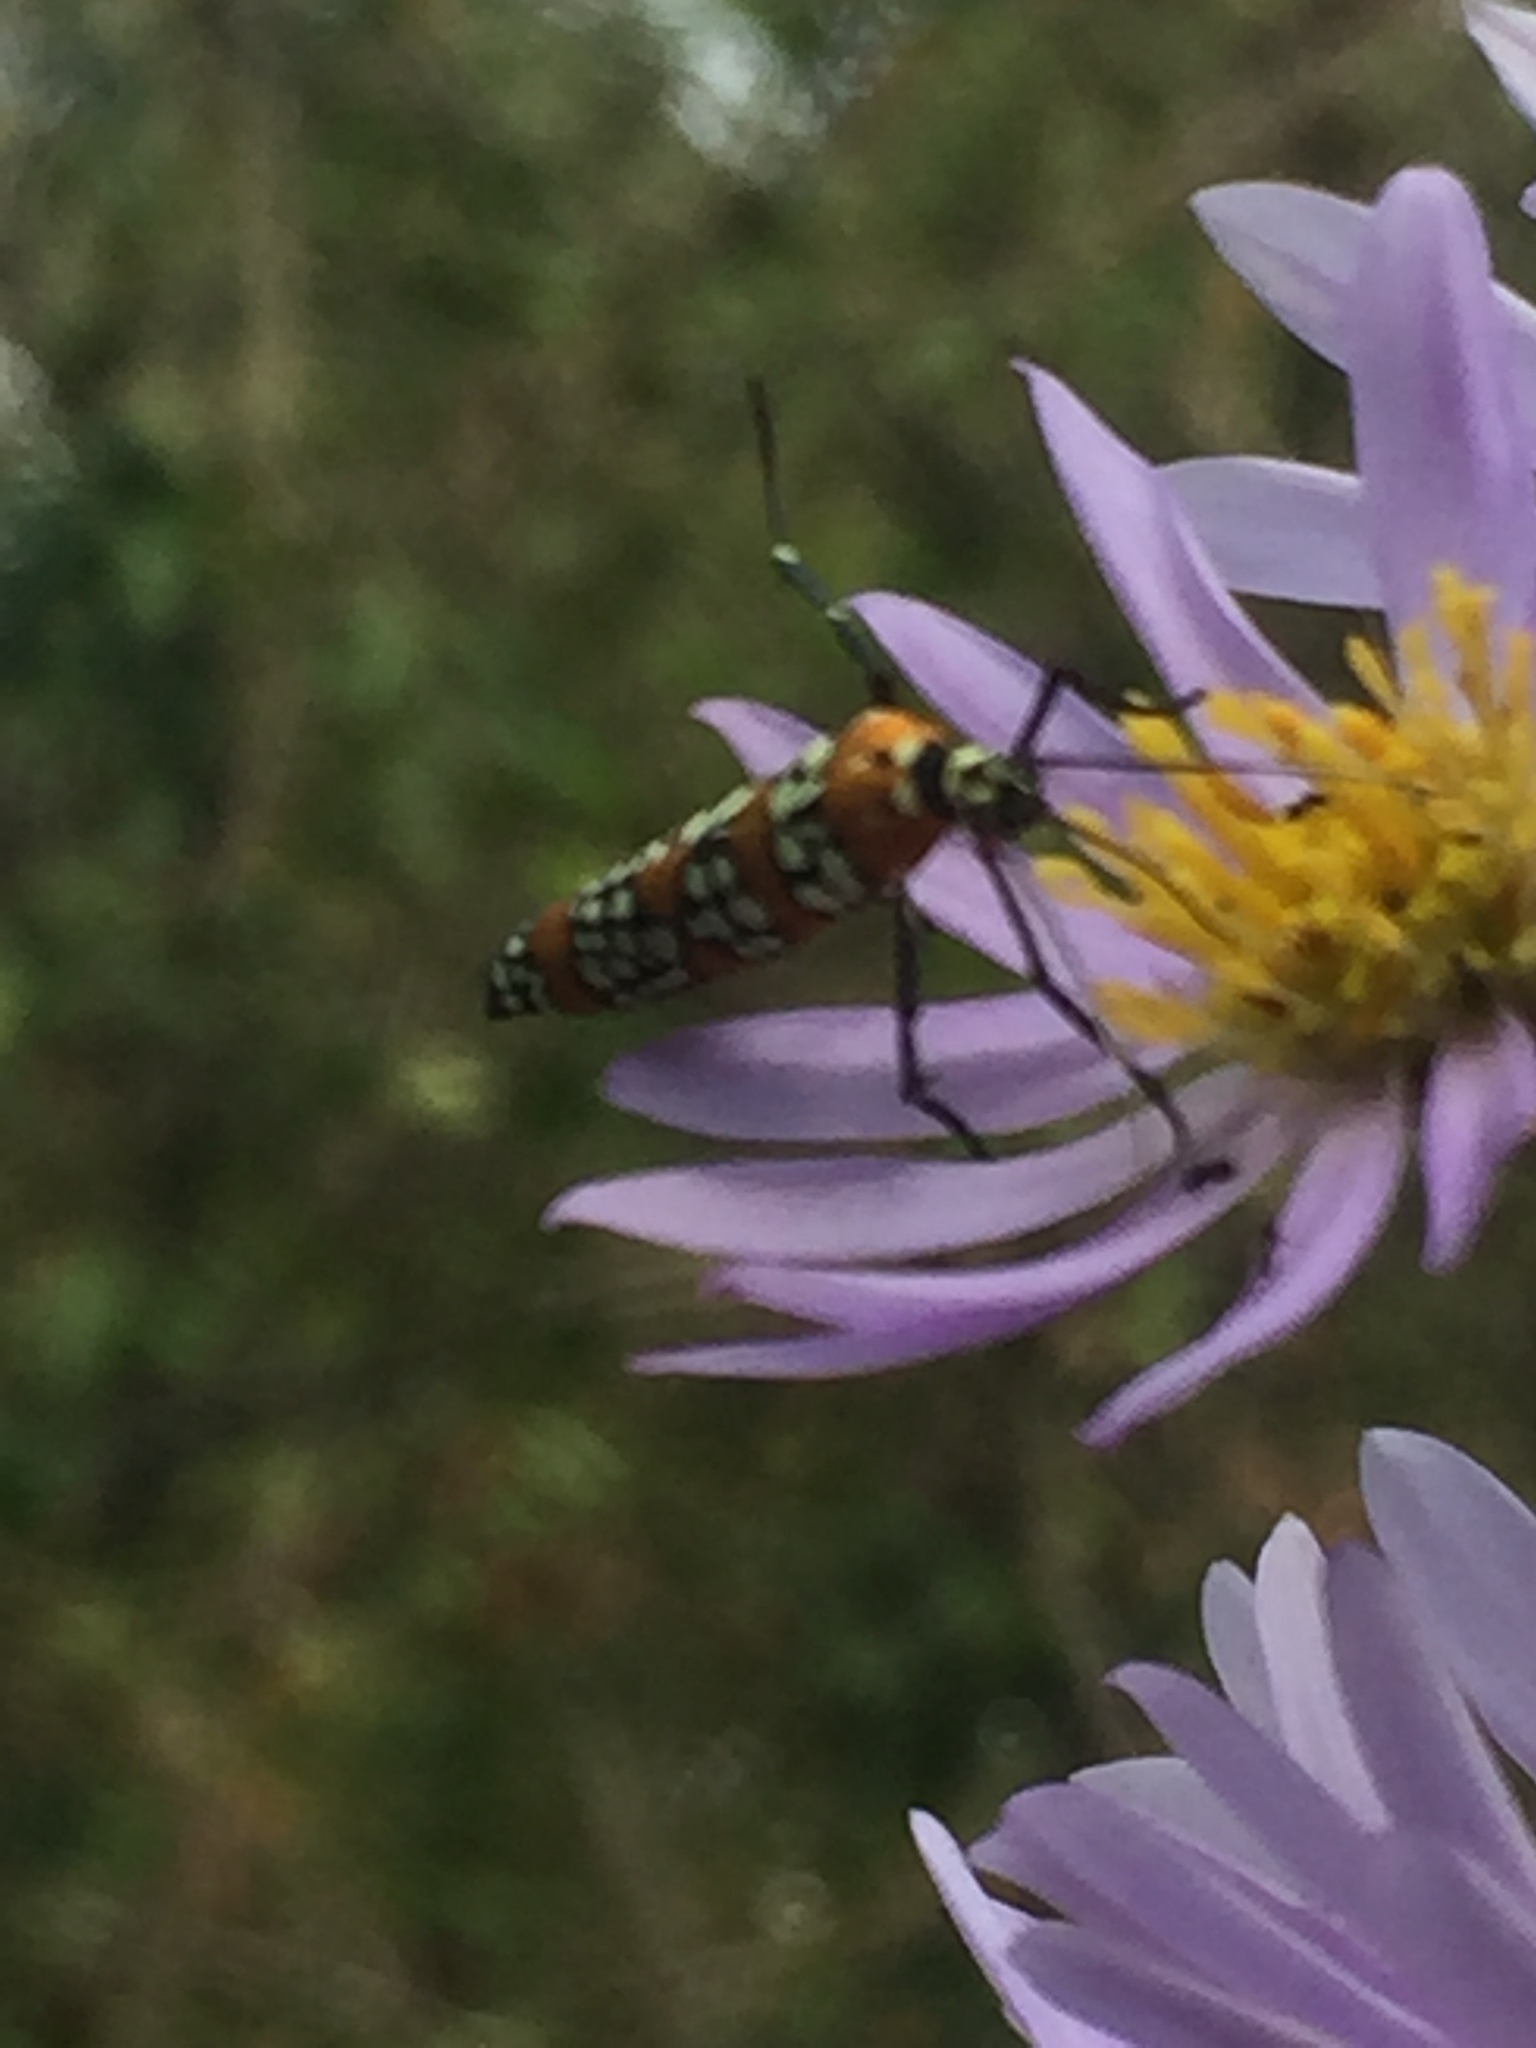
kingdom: Animalia
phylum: Arthropoda
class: Insecta
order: Lepidoptera
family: Attevidae
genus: Atteva
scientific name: Atteva punctella
